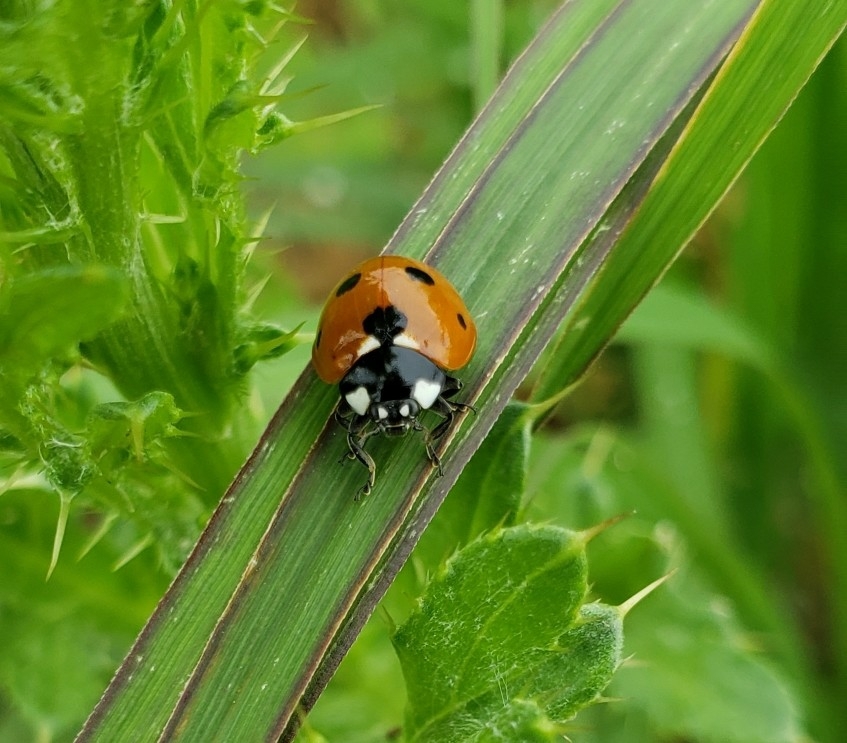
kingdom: Animalia
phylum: Arthropoda
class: Insecta
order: Coleoptera
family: Coccinellidae
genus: Coccinella
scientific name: Coccinella septempunctata
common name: Sevenspotted lady beetle
